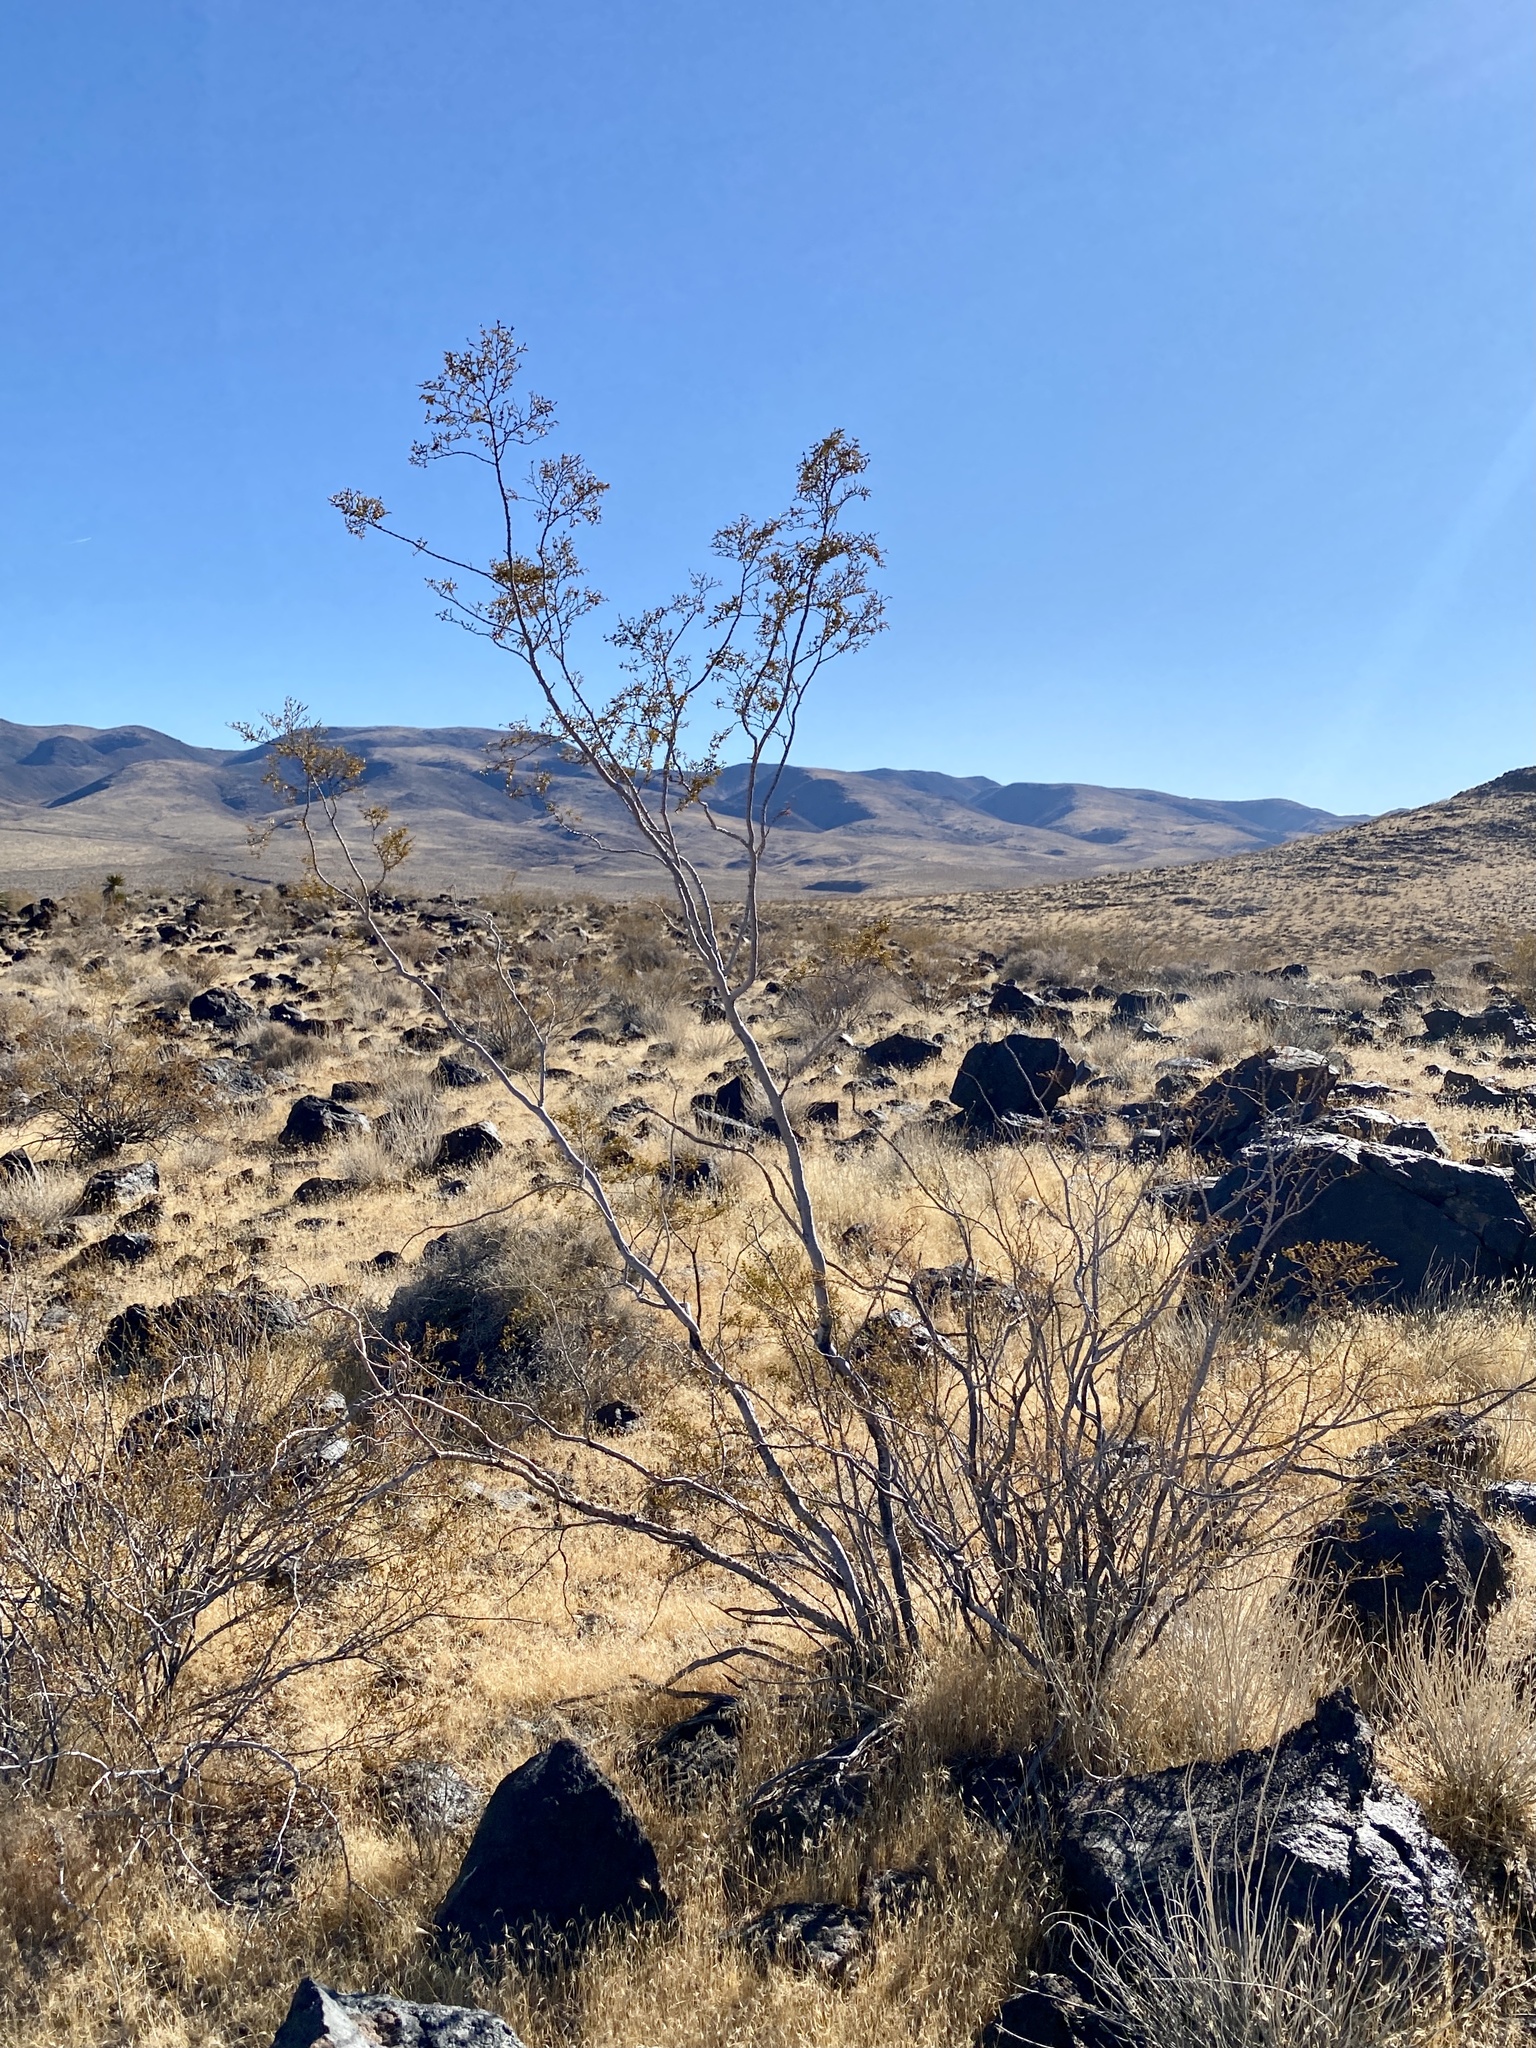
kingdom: Plantae
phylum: Tracheophyta
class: Magnoliopsida
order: Zygophyllales
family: Zygophyllaceae
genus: Larrea
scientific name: Larrea tridentata
